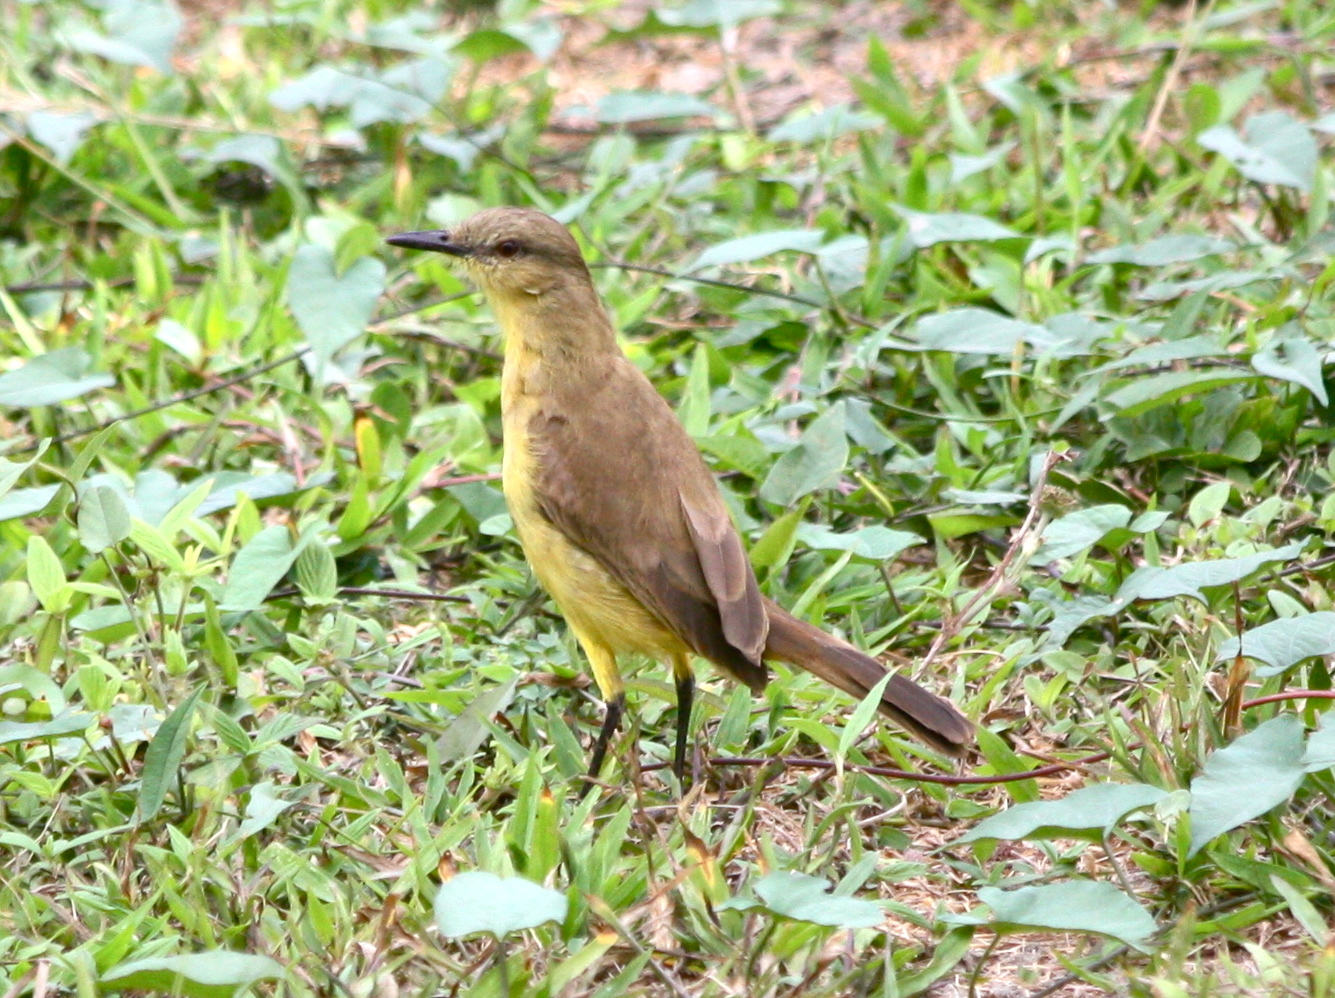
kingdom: Animalia
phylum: Chordata
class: Aves
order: Passeriformes
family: Tyrannidae
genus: Machetornis
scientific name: Machetornis rixosa
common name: Cattle tyrant
